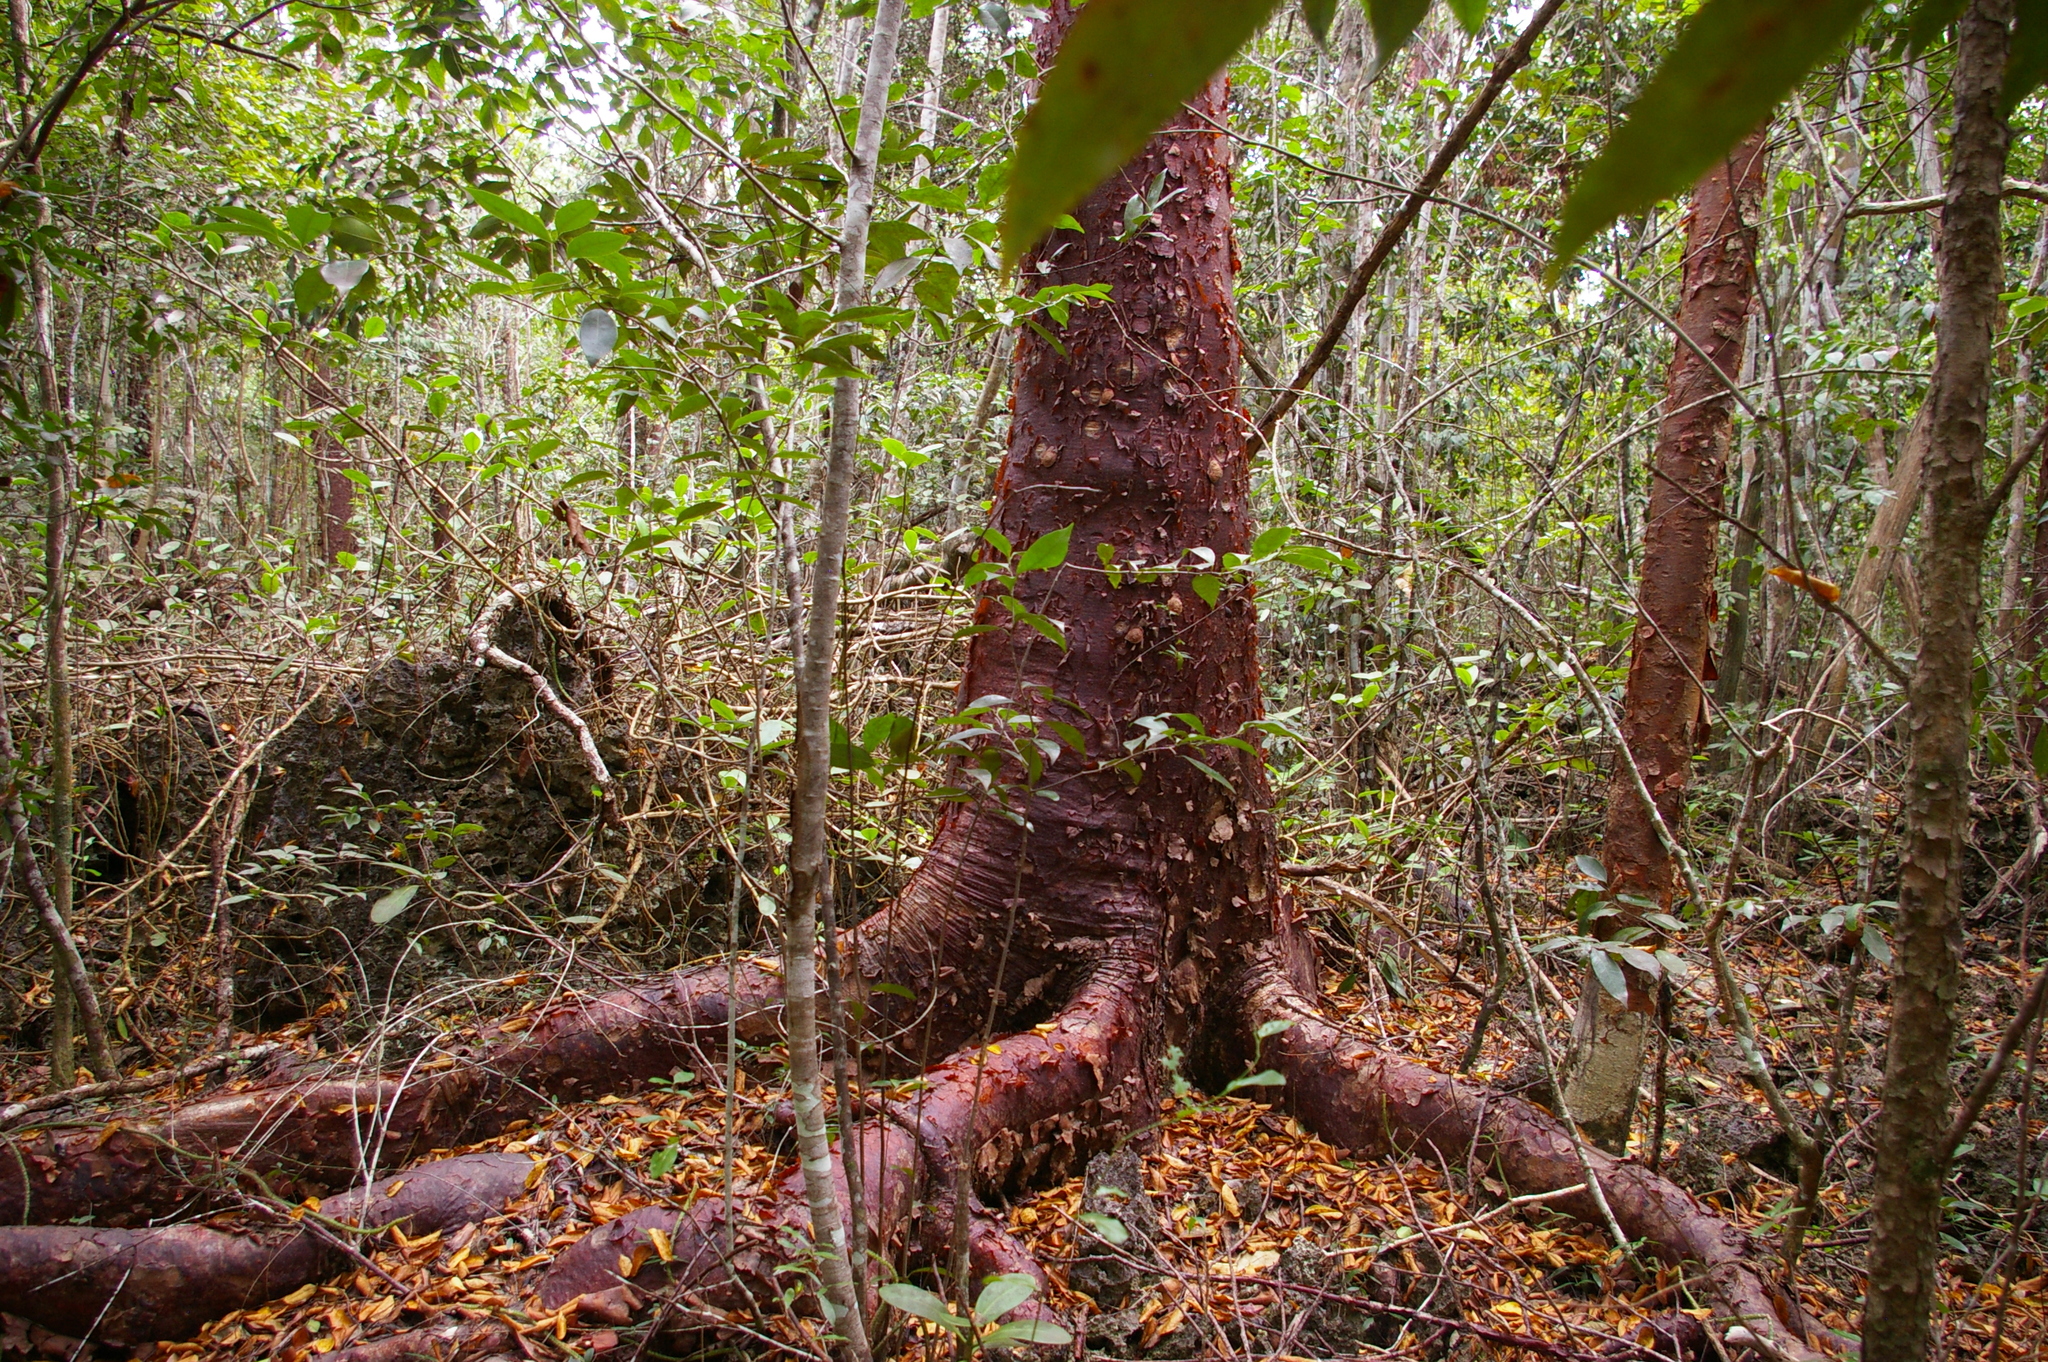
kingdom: Plantae
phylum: Tracheophyta
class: Magnoliopsida
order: Sapindales
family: Burseraceae
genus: Bursera
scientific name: Bursera simaruba
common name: Turpentine tree
